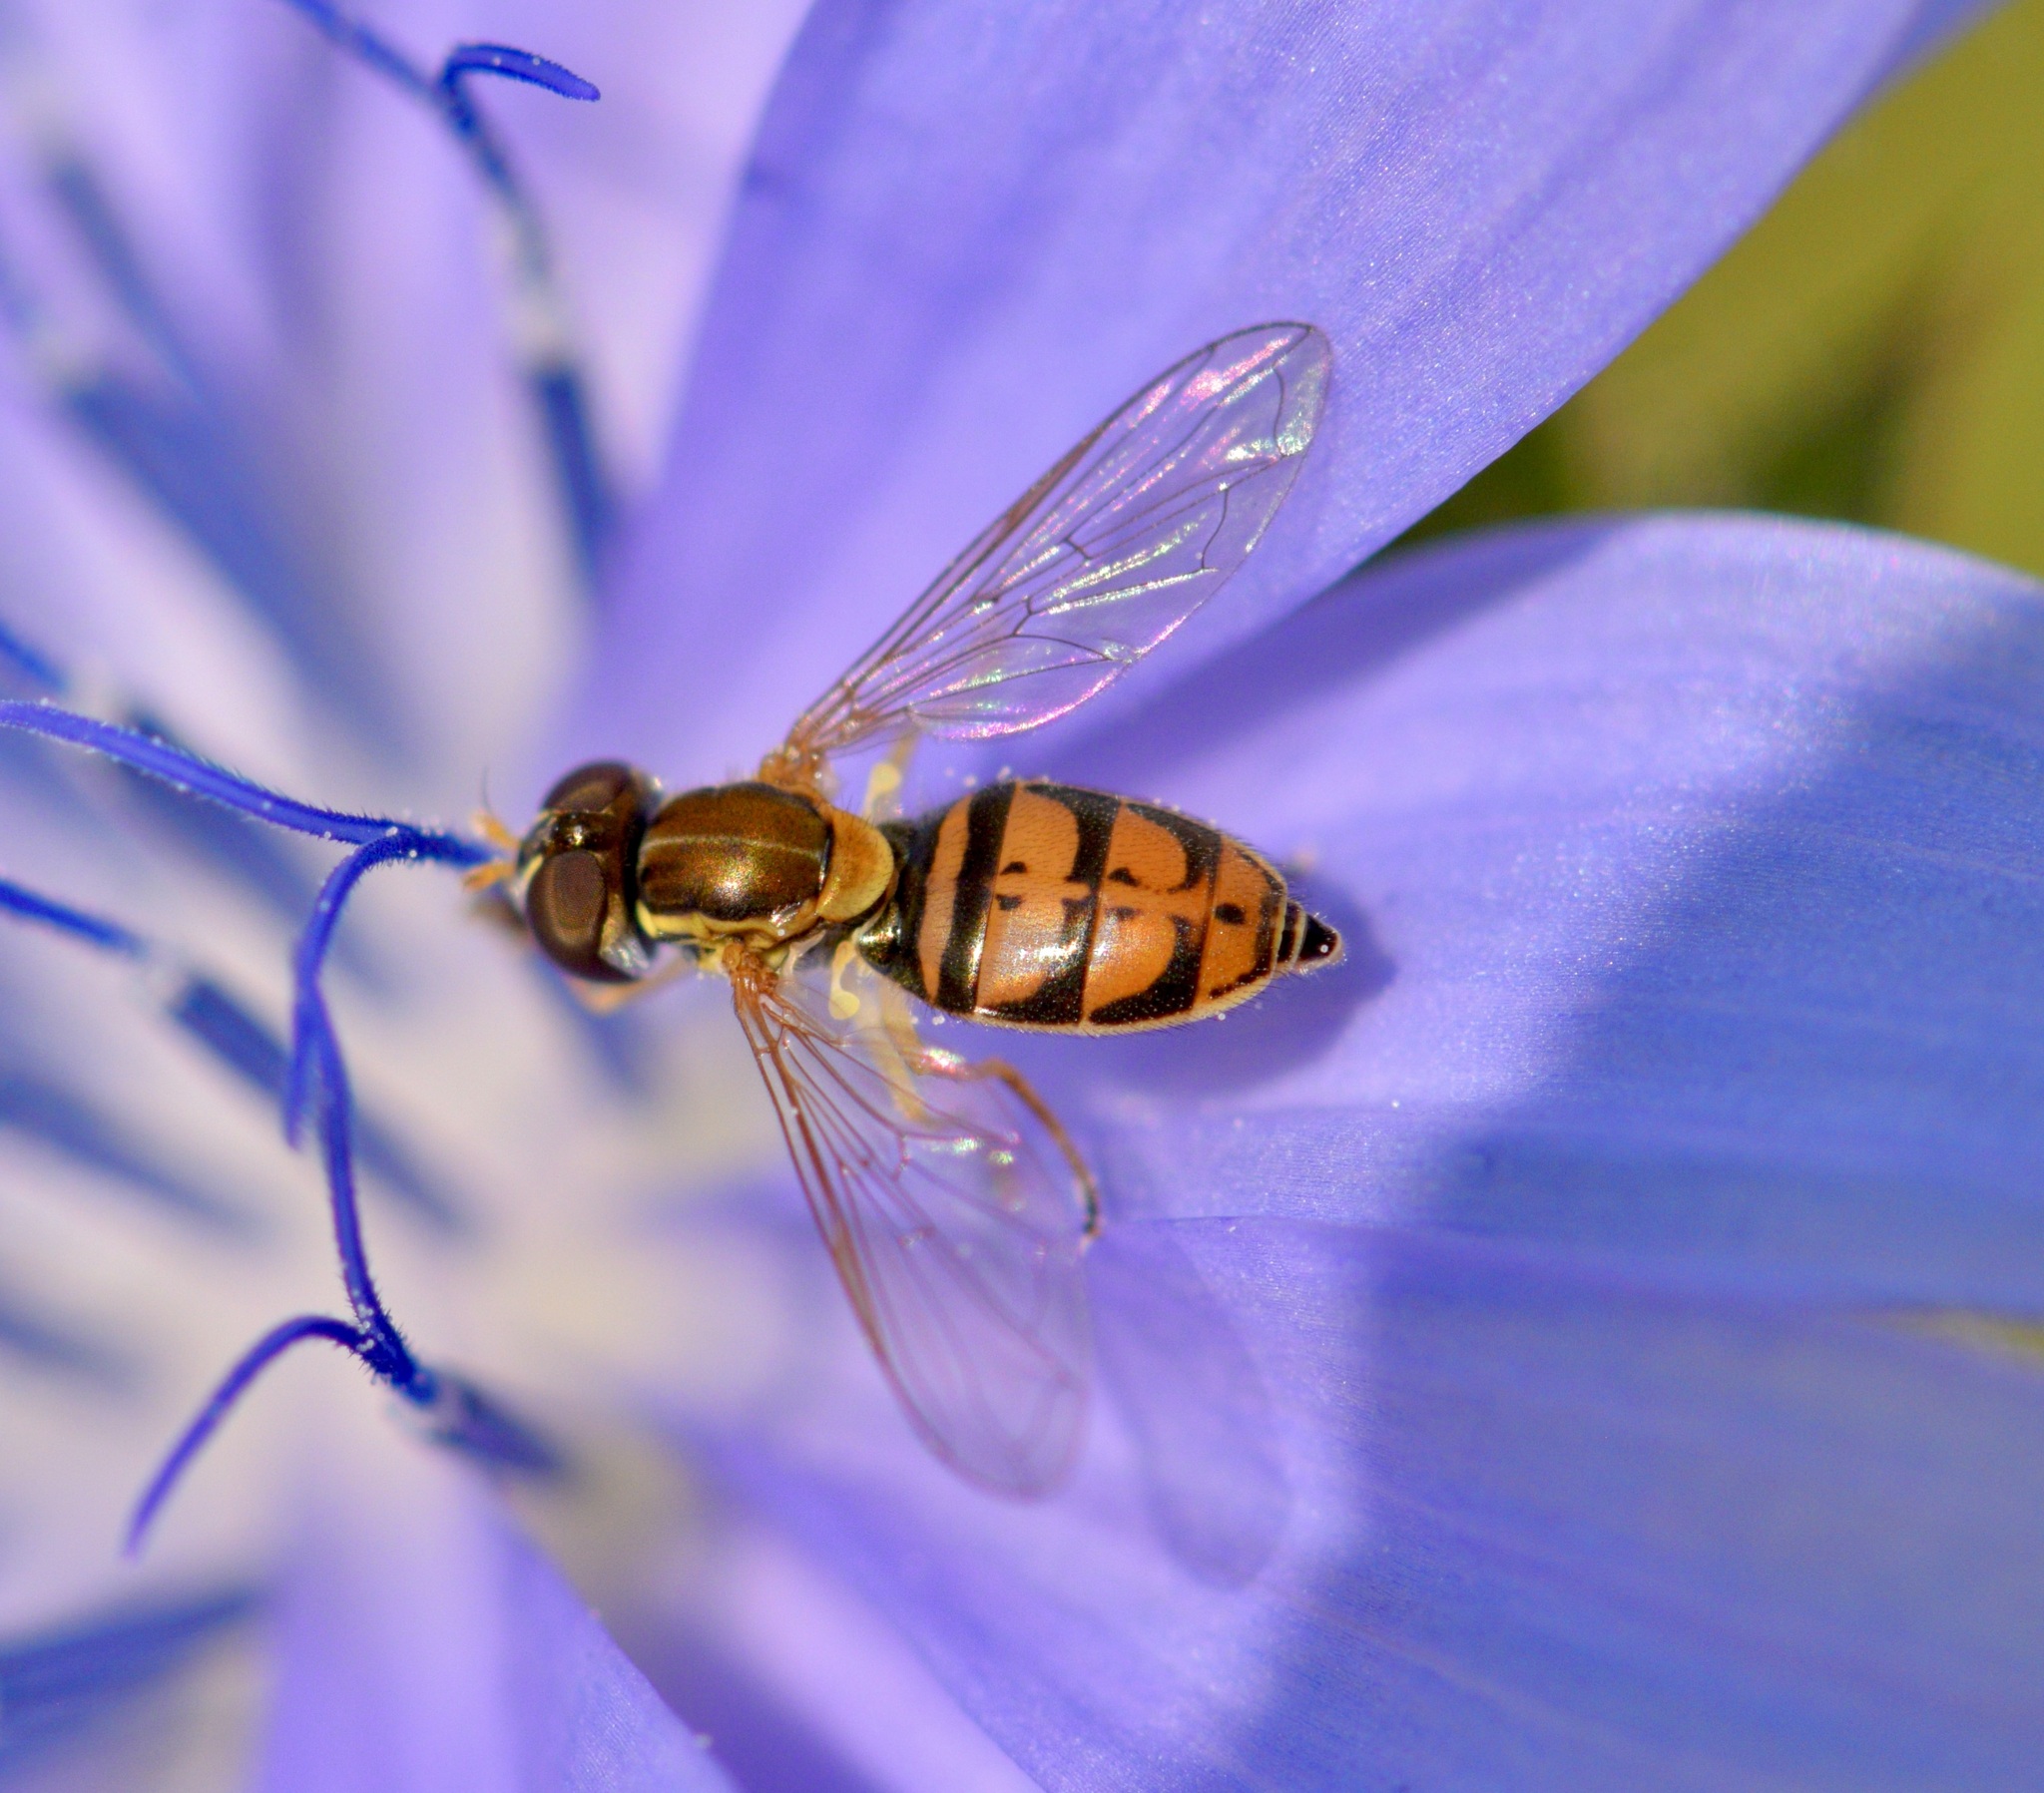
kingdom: Animalia
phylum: Arthropoda
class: Insecta
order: Diptera
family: Syrphidae
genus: Toxomerus
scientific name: Toxomerus marginatus
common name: Syrphid fly
